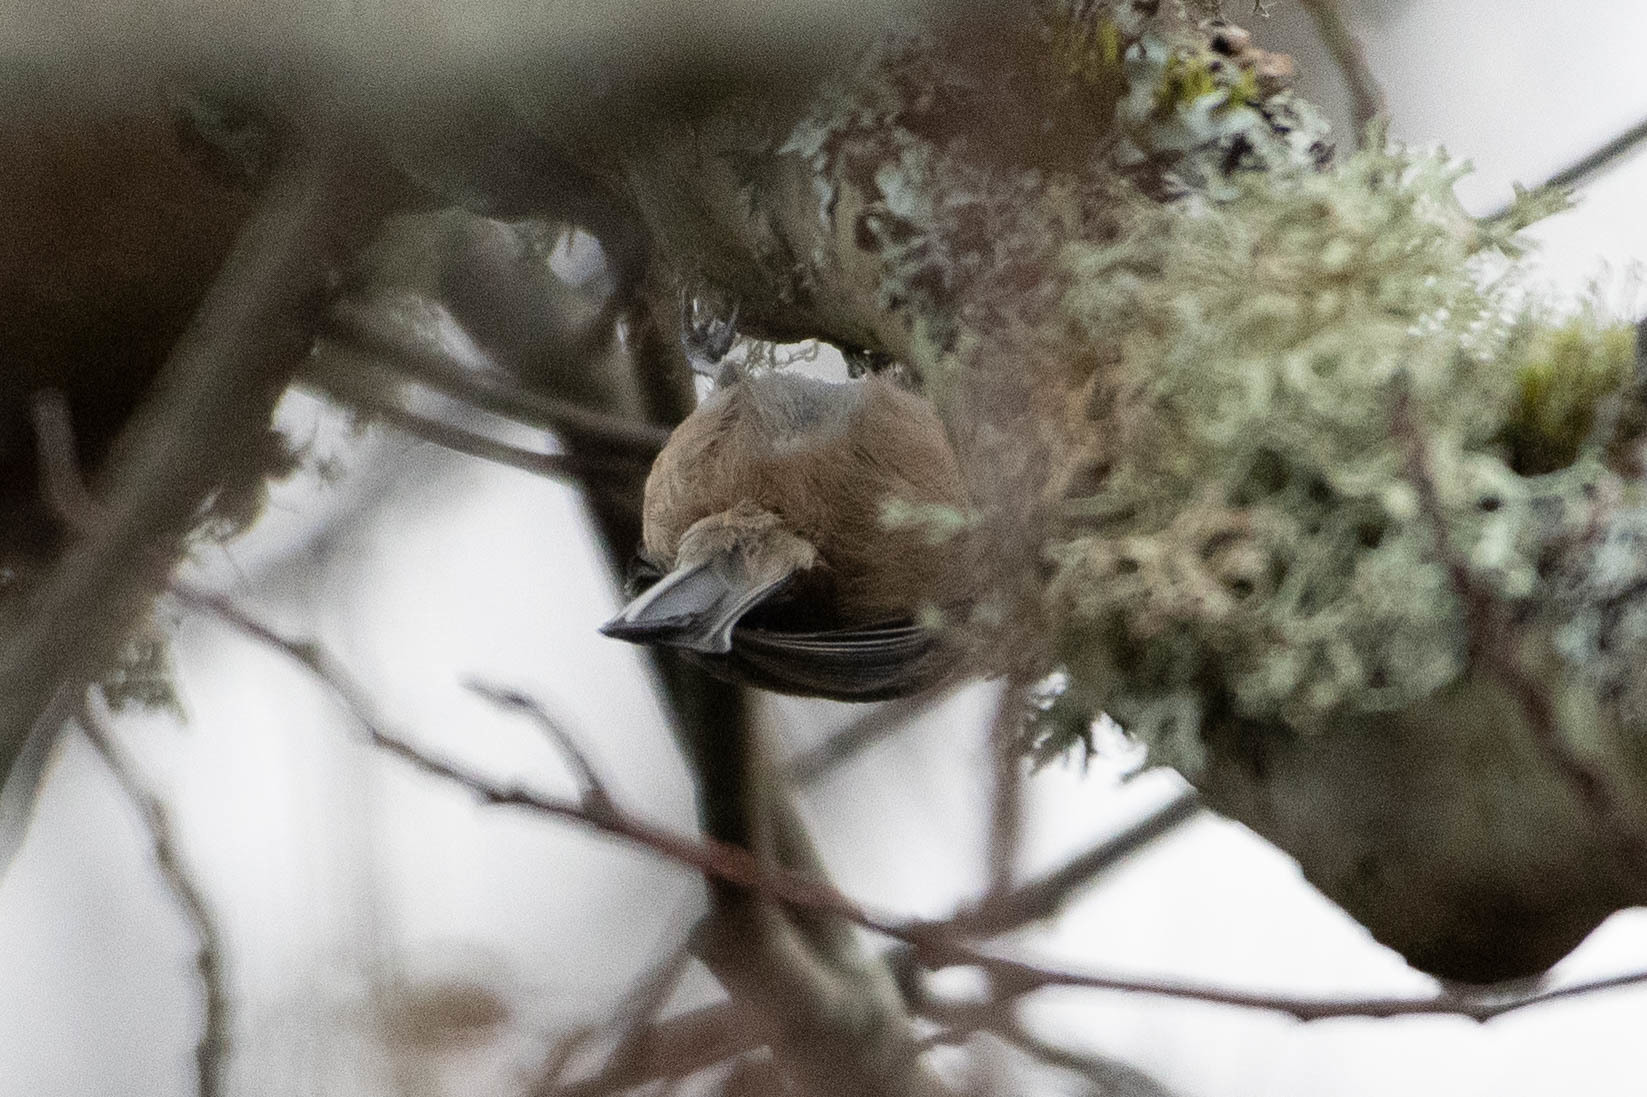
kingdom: Animalia
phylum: Chordata
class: Aves
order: Passeriformes
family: Paridae
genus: Poecile
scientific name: Poecile atricapillus
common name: Black-capped chickadee
